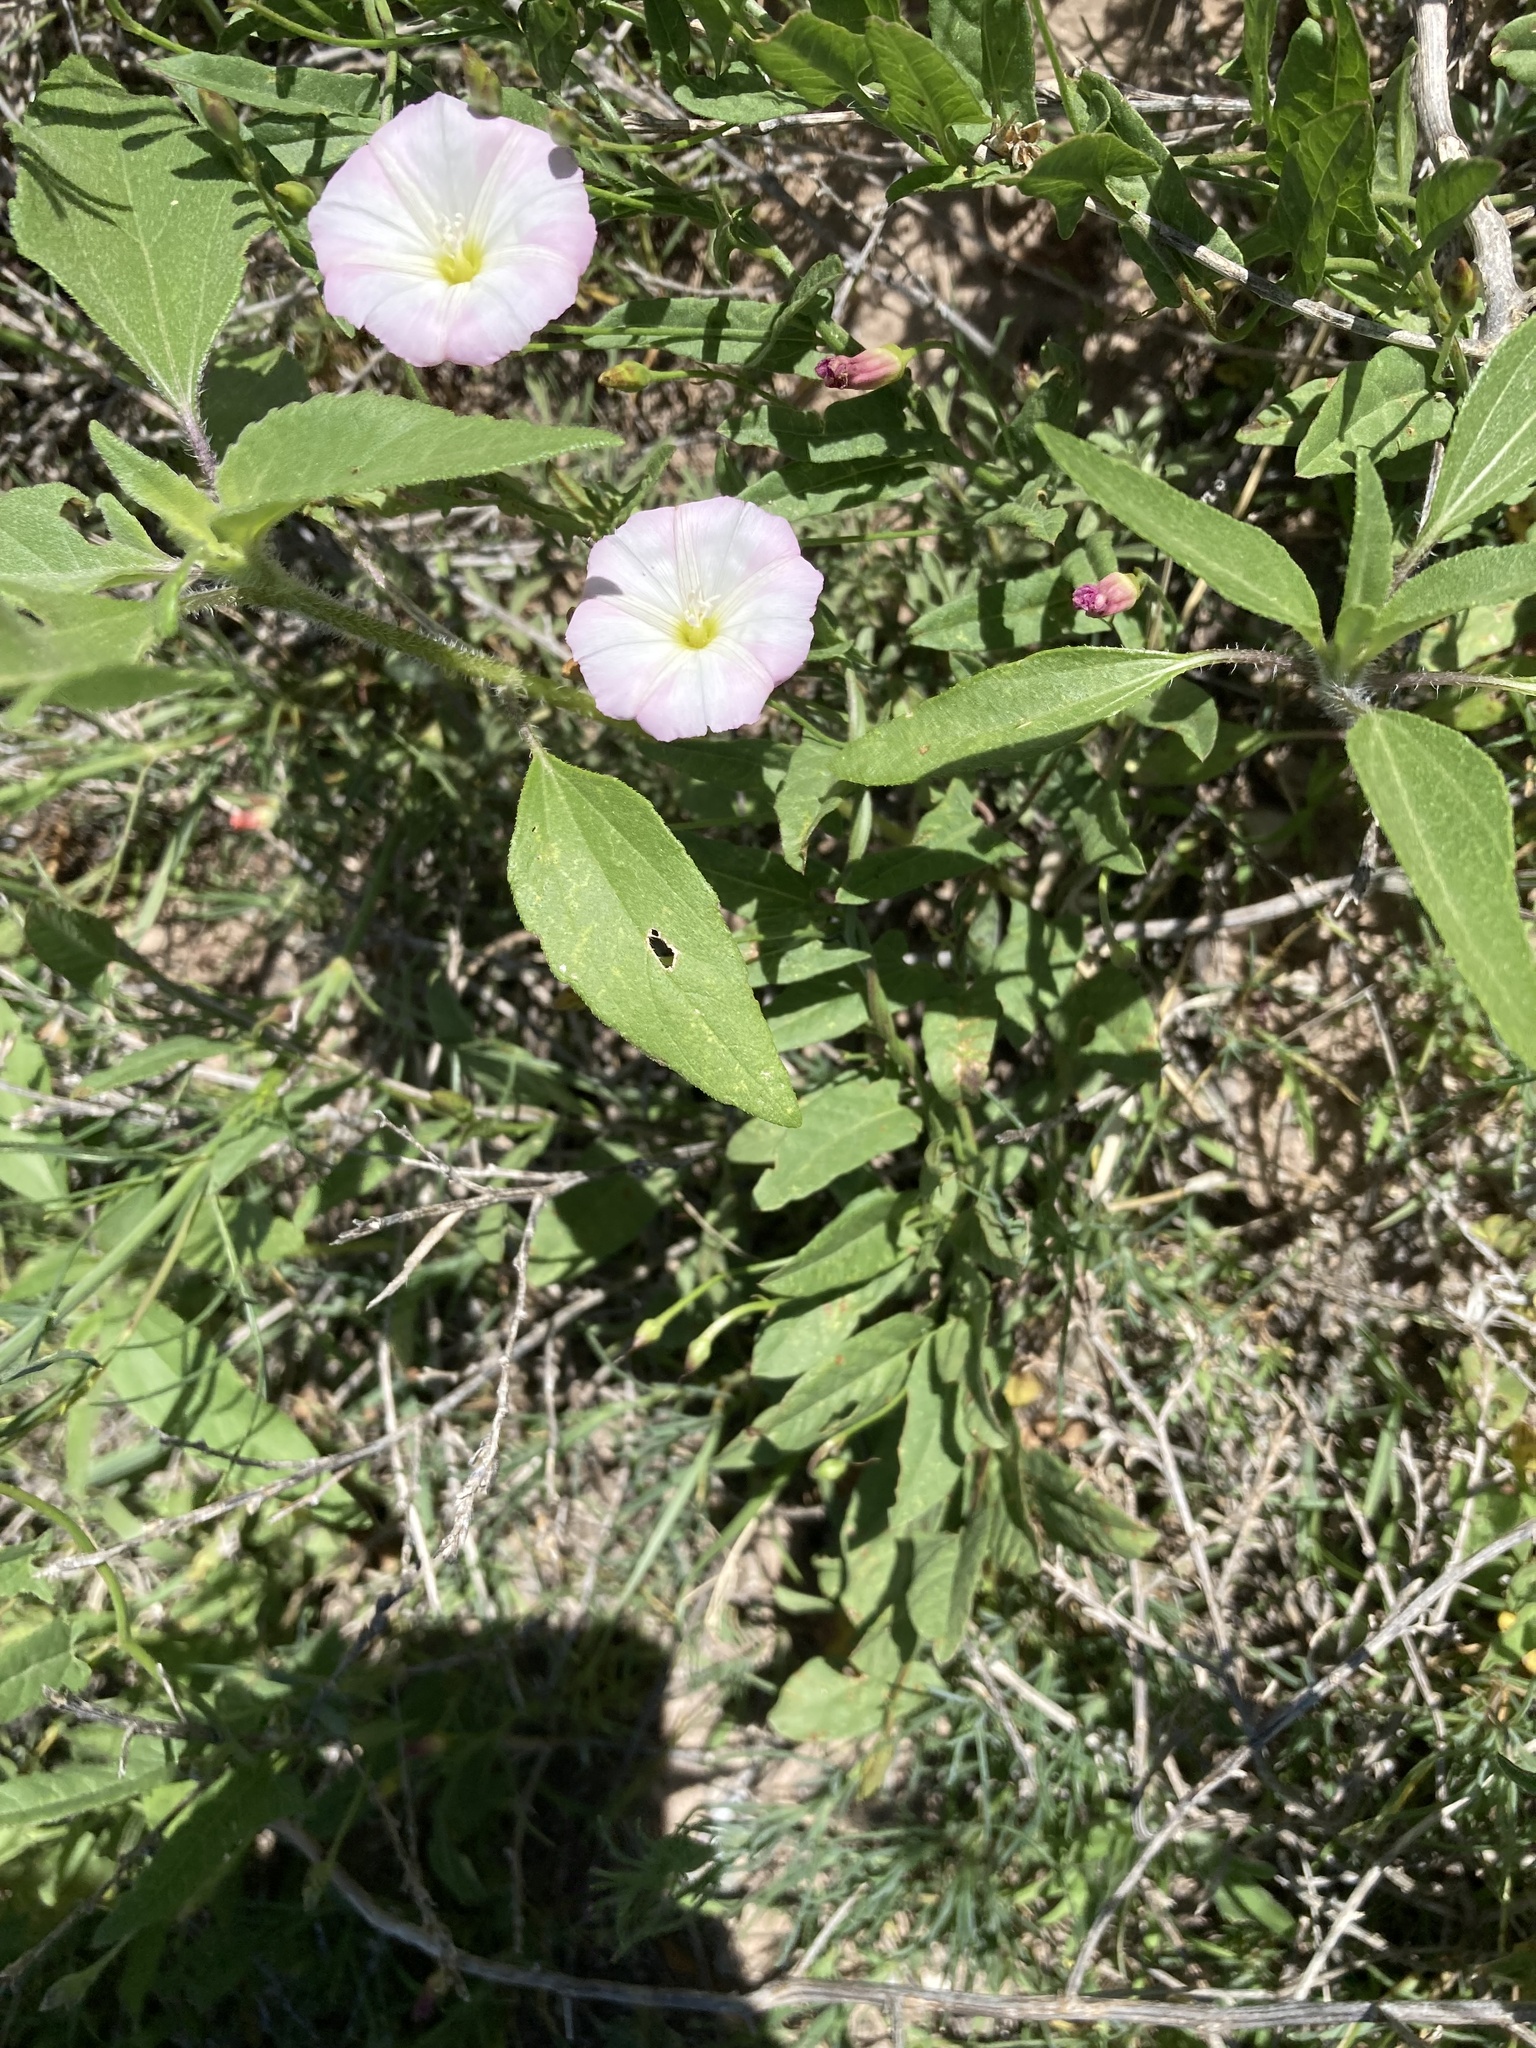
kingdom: Plantae
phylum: Tracheophyta
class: Magnoliopsida
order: Solanales
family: Convolvulaceae
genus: Convolvulus
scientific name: Convolvulus arvensis
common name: Field bindweed
